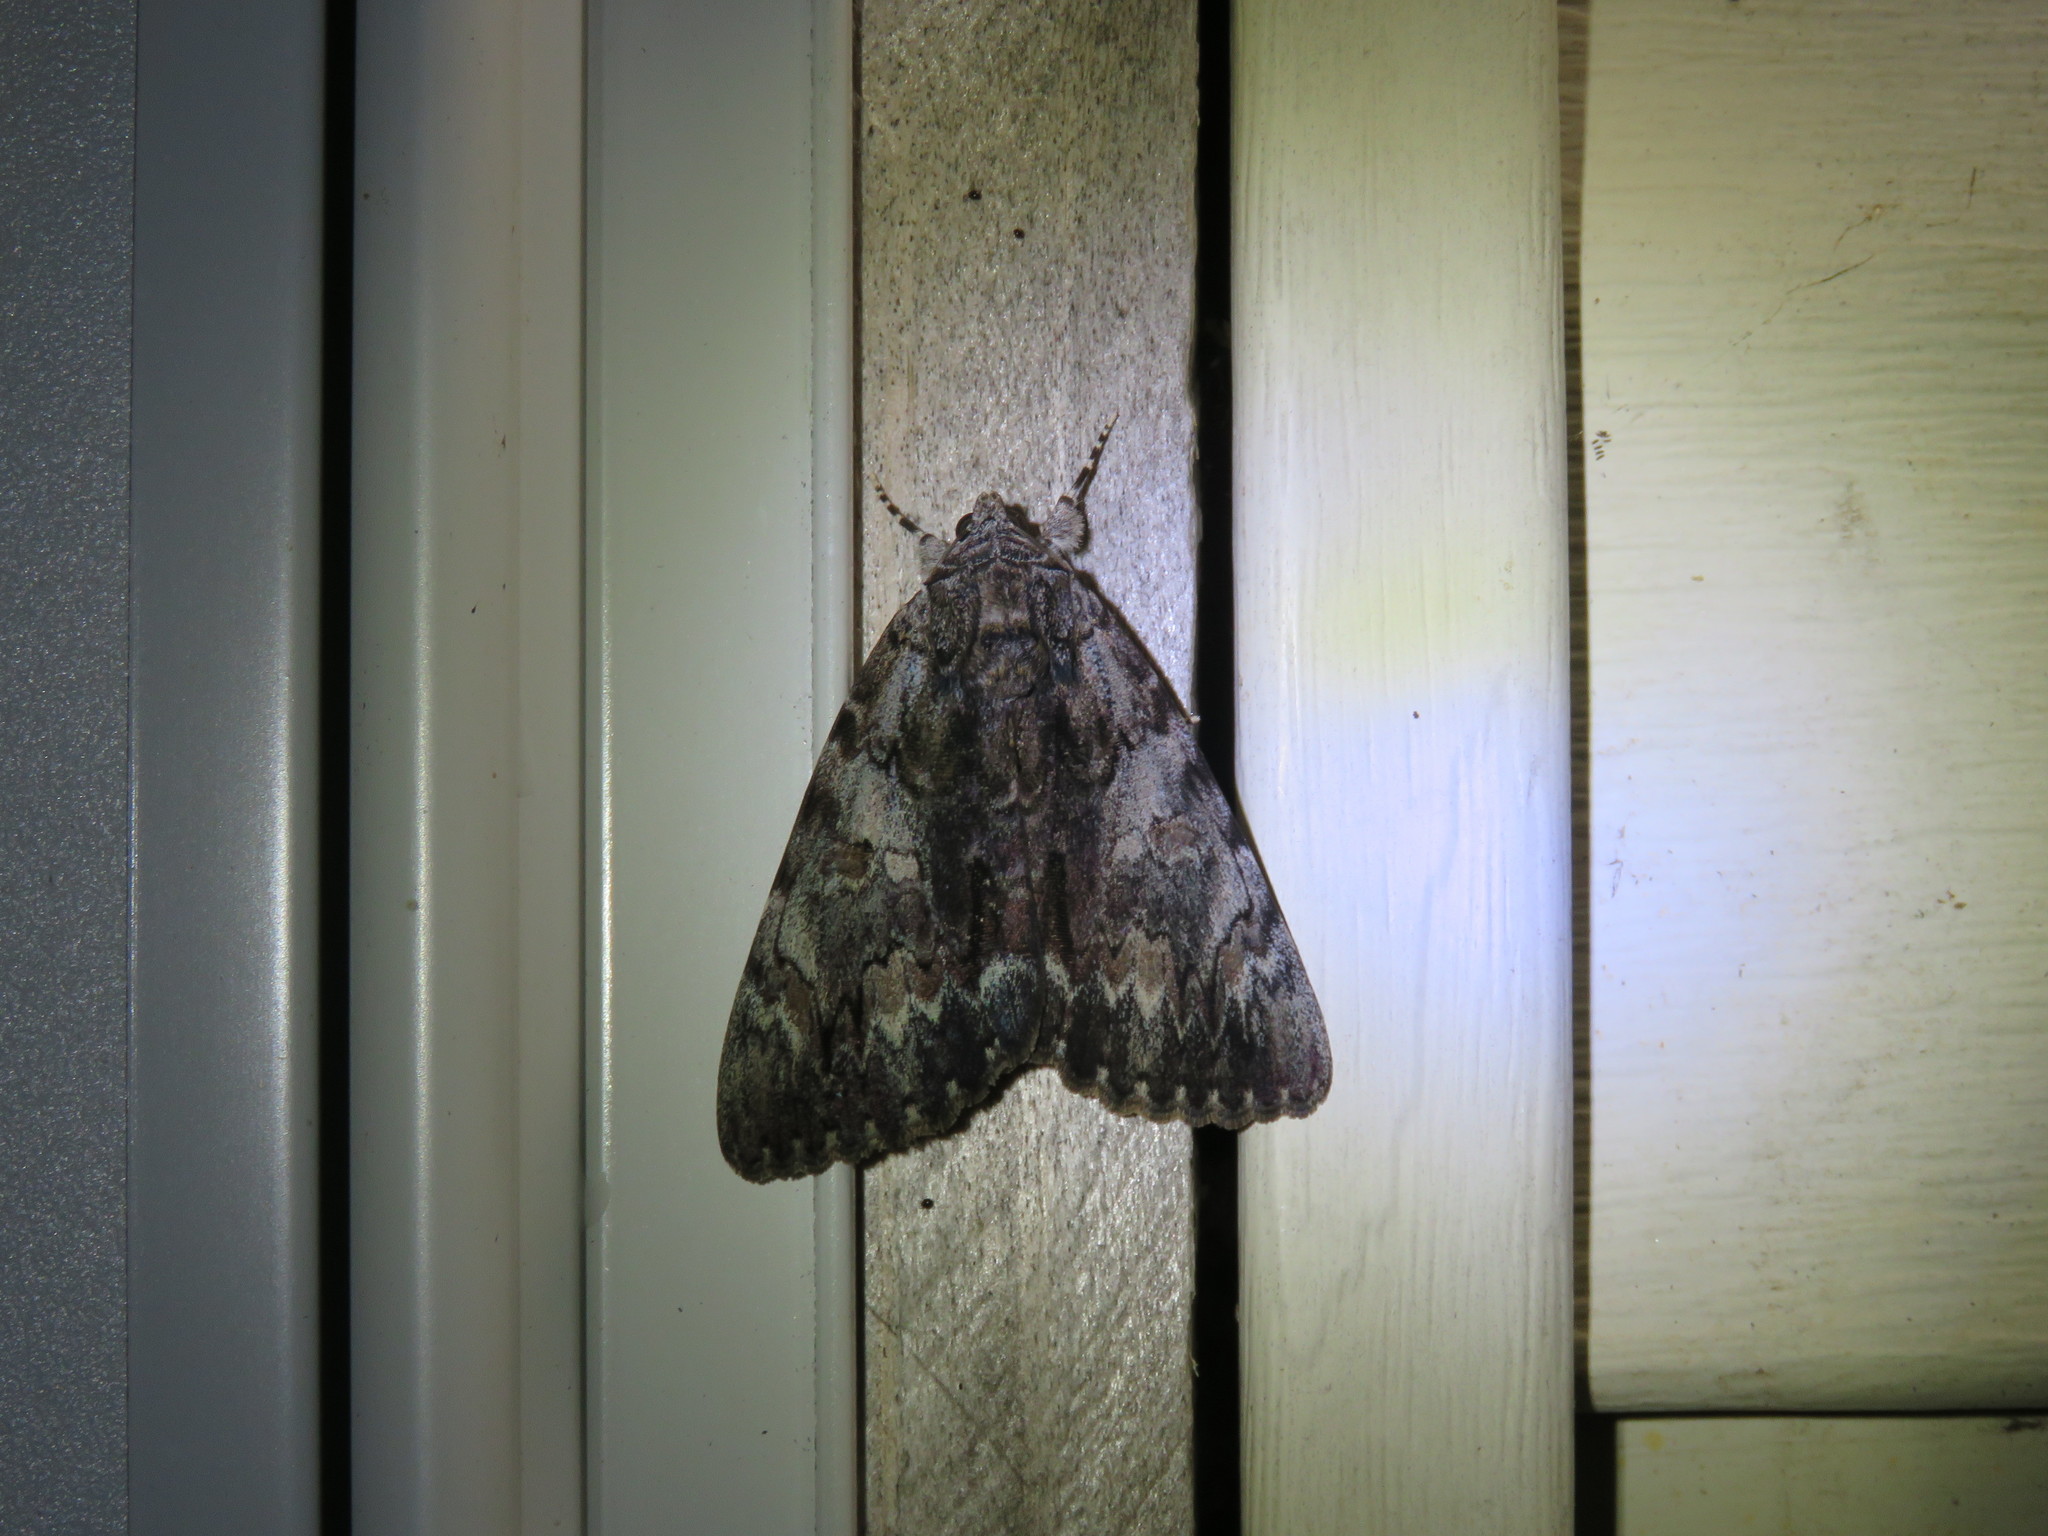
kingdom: Animalia
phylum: Arthropoda
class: Insecta
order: Lepidoptera
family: Erebidae
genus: Catocala
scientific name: Catocala palaeogama
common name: Oldwife underwing
